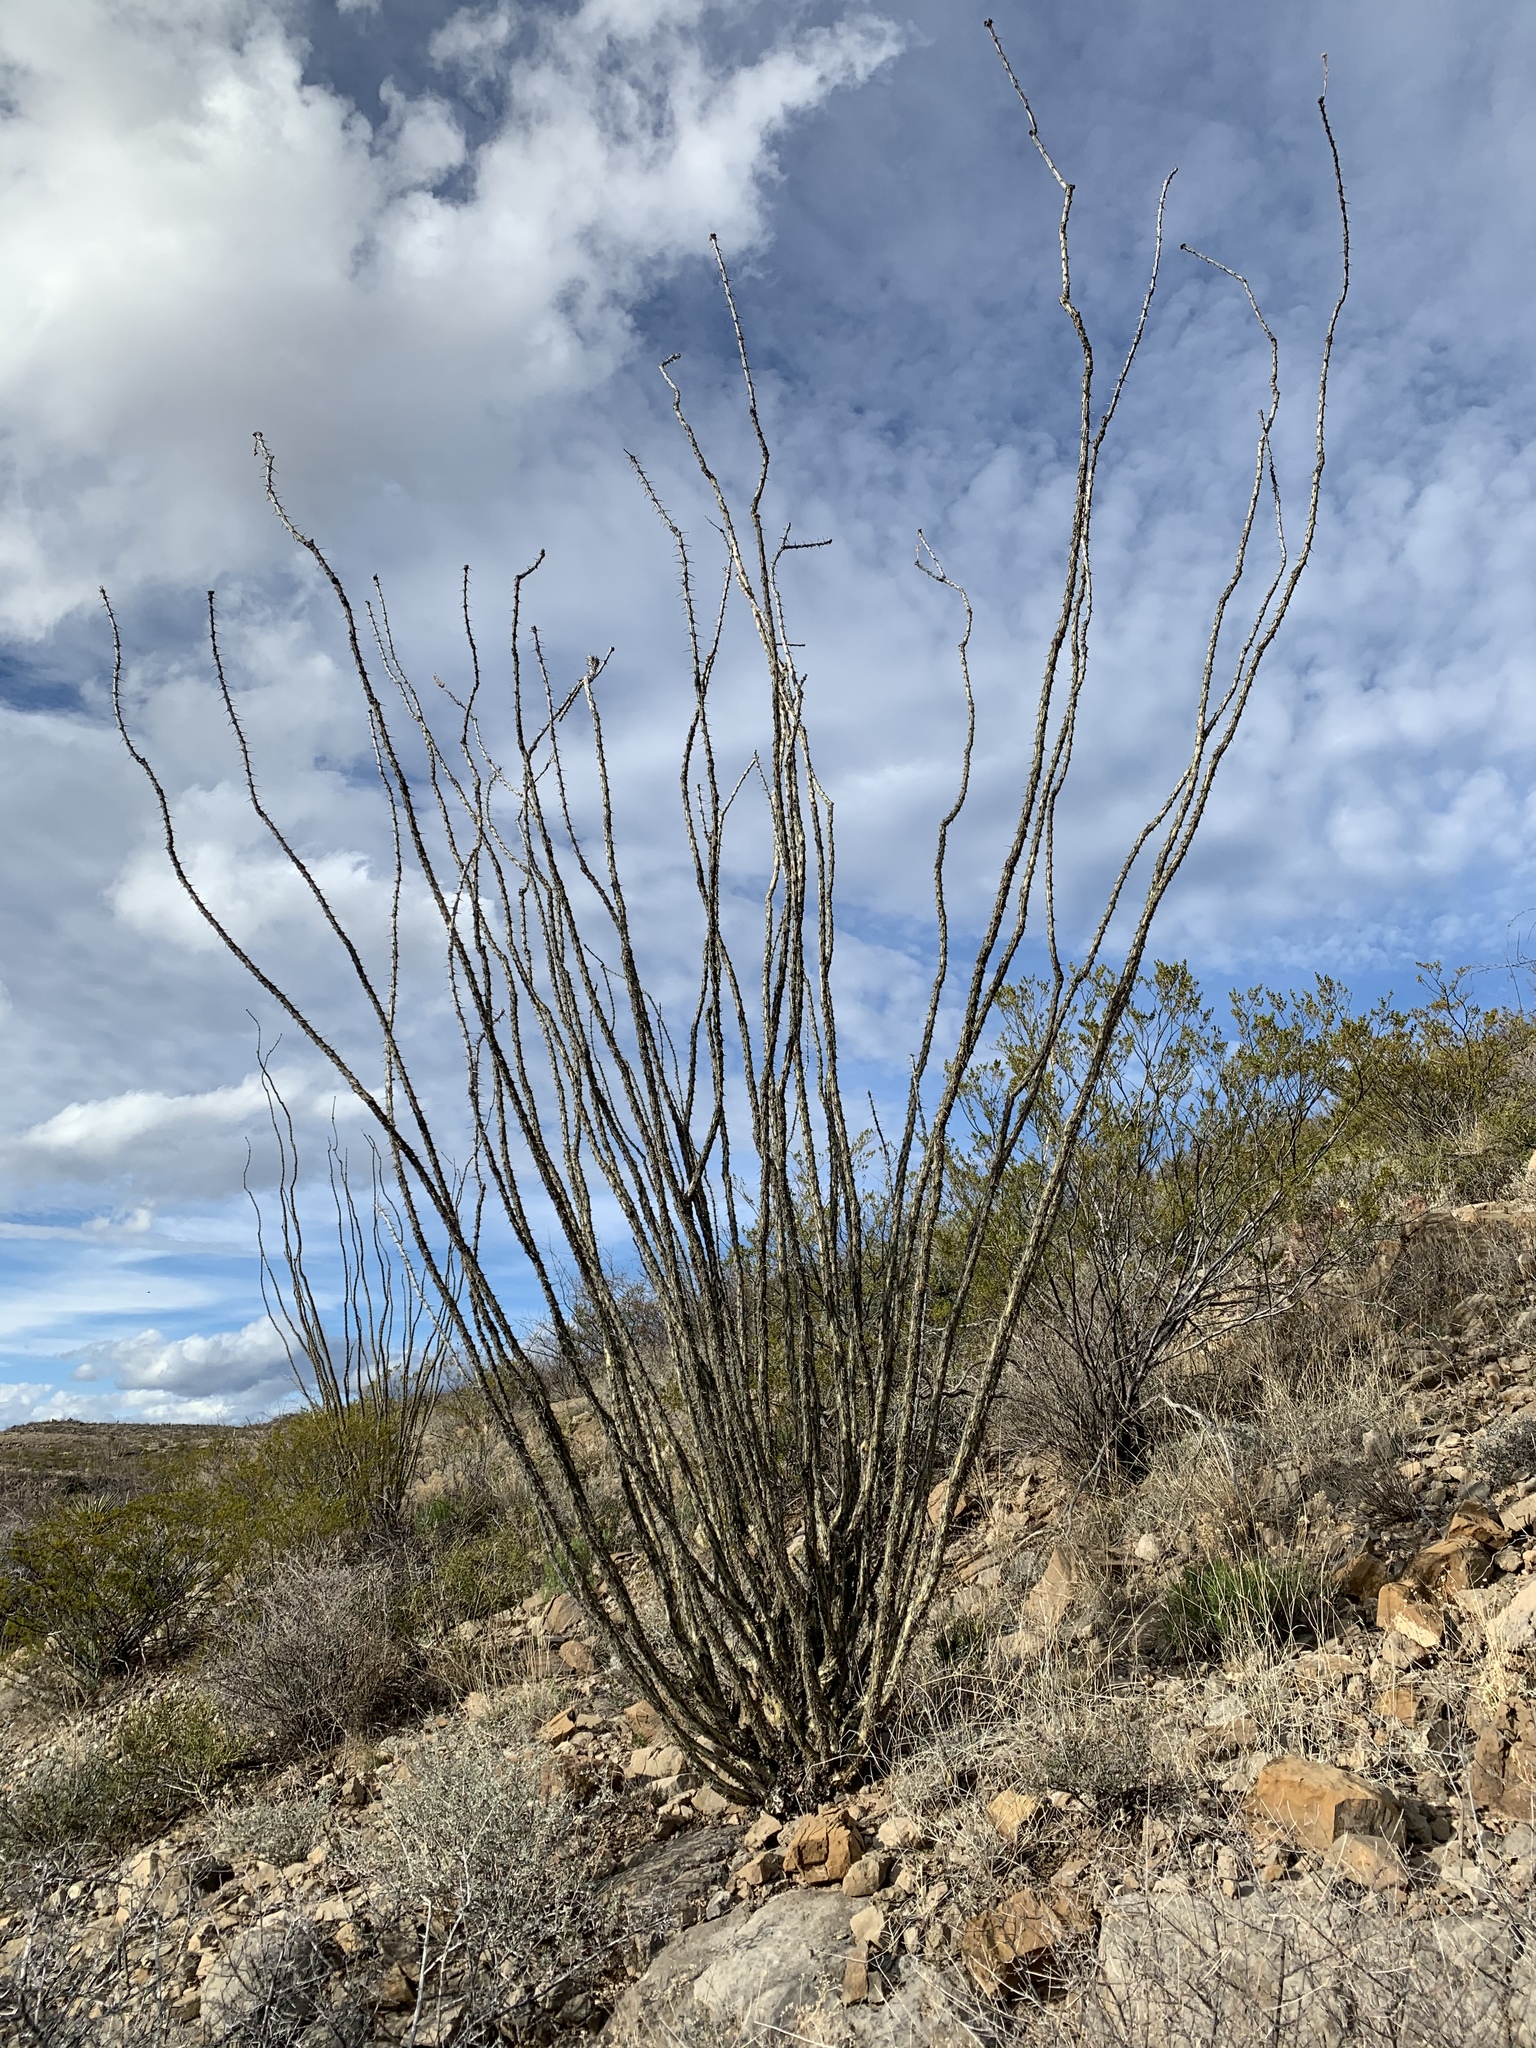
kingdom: Plantae
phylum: Tracheophyta
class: Magnoliopsida
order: Ericales
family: Fouquieriaceae
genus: Fouquieria
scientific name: Fouquieria splendens
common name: Vine-cactus
